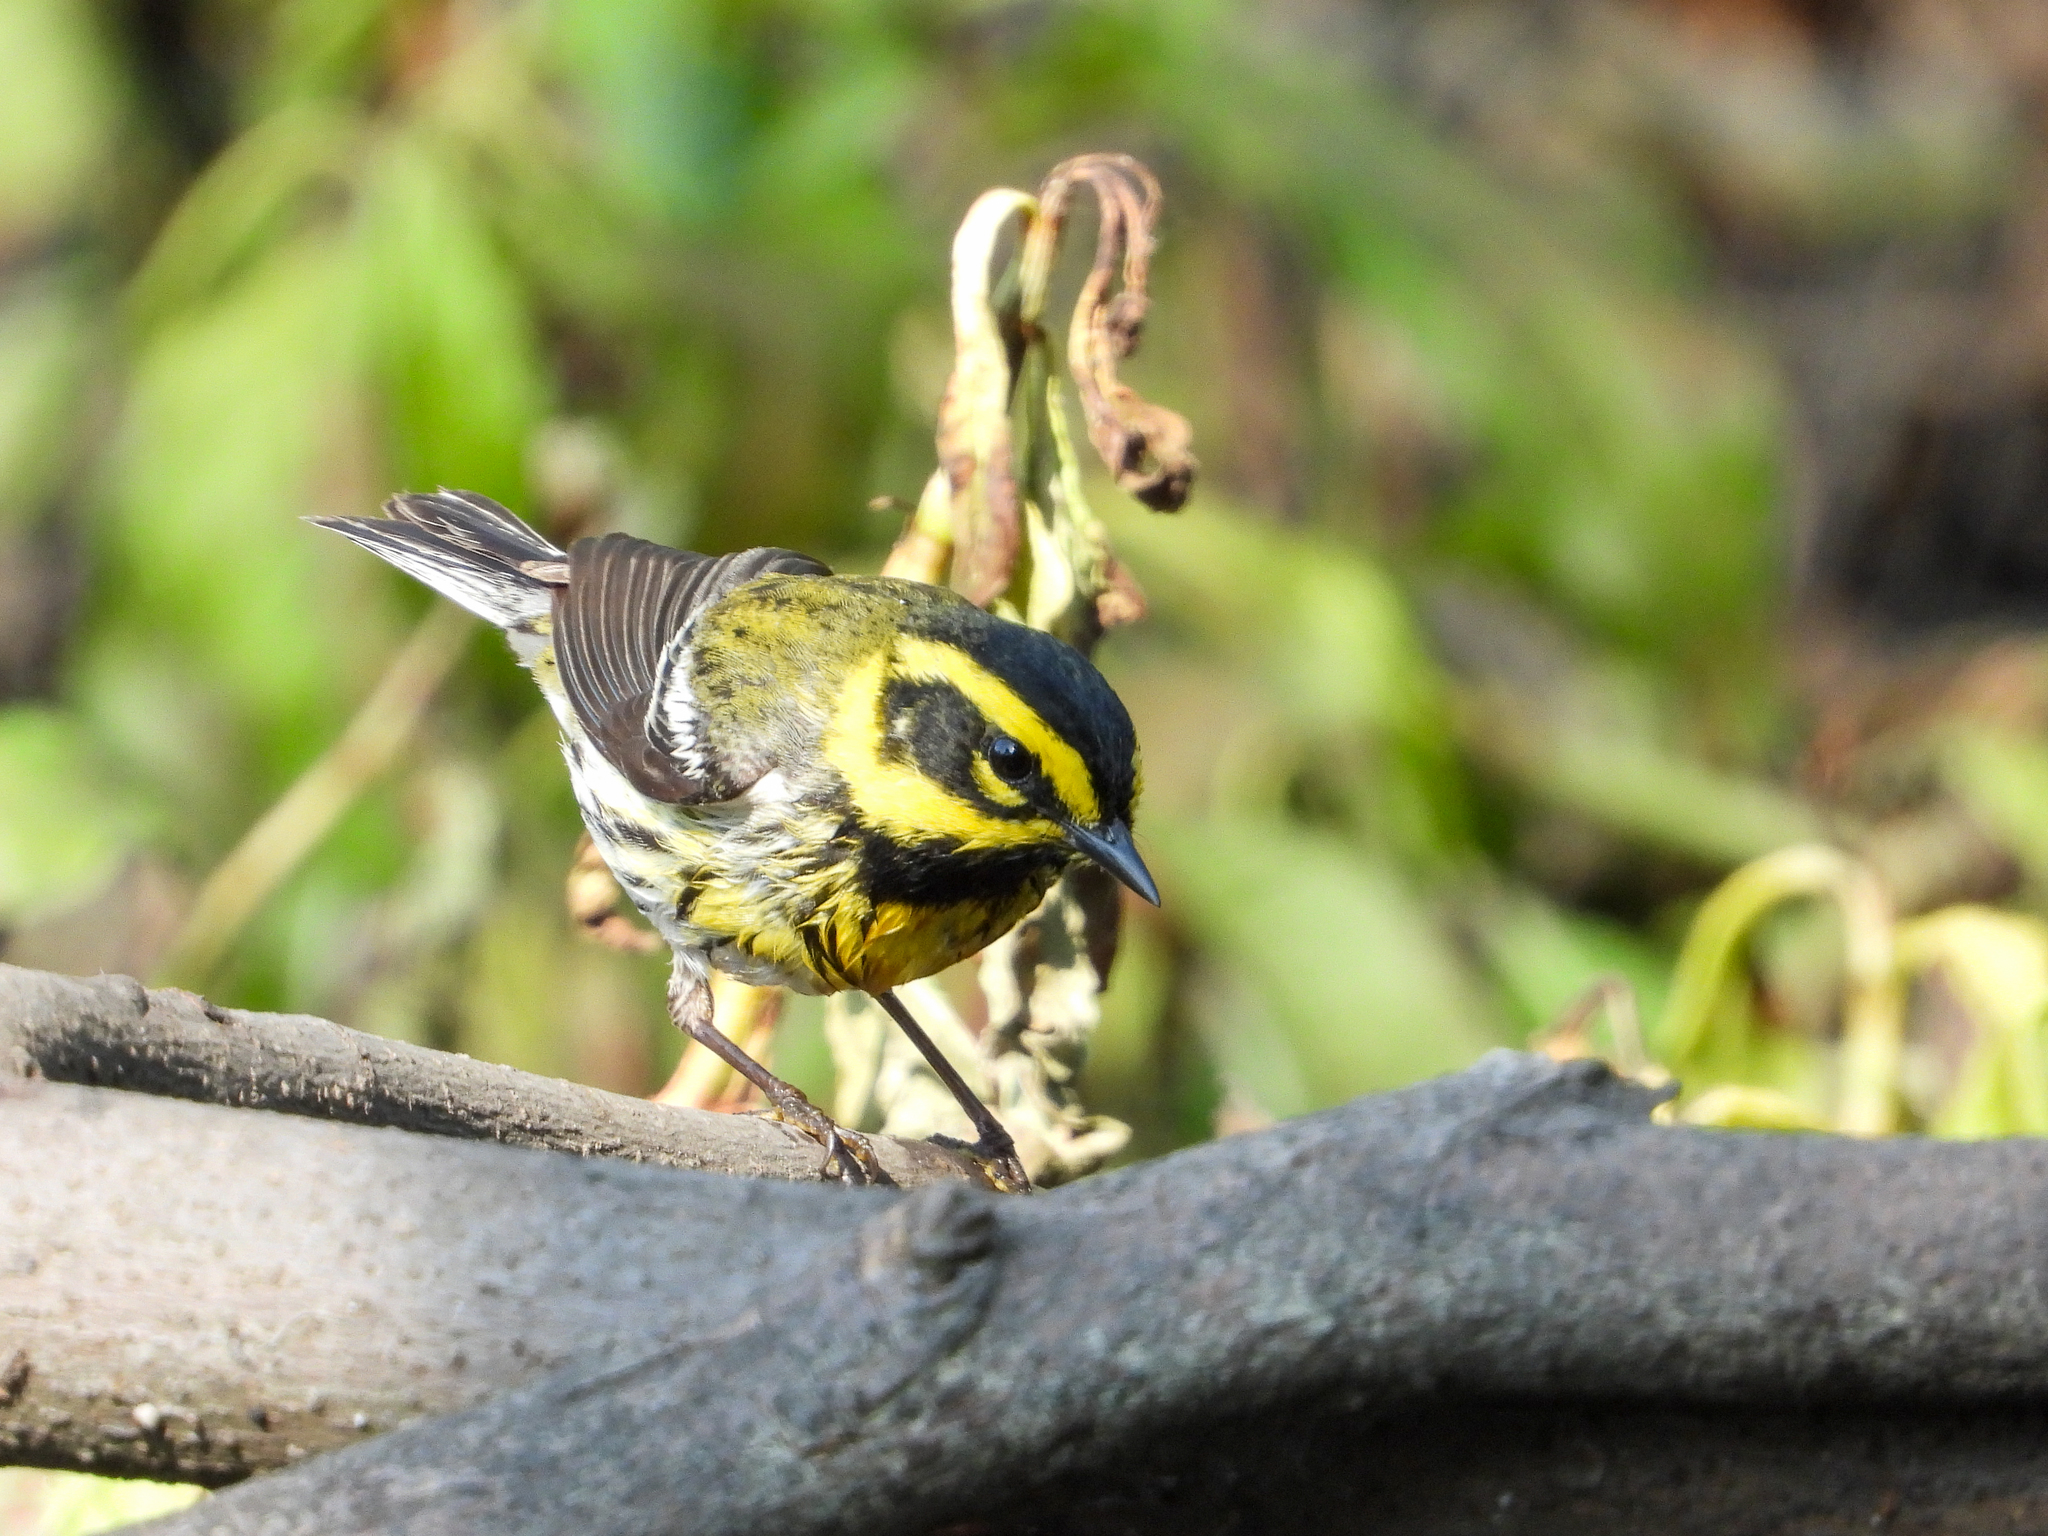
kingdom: Animalia
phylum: Chordata
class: Aves
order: Passeriformes
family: Parulidae
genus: Setophaga
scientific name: Setophaga townsendi
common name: Townsend's warbler
